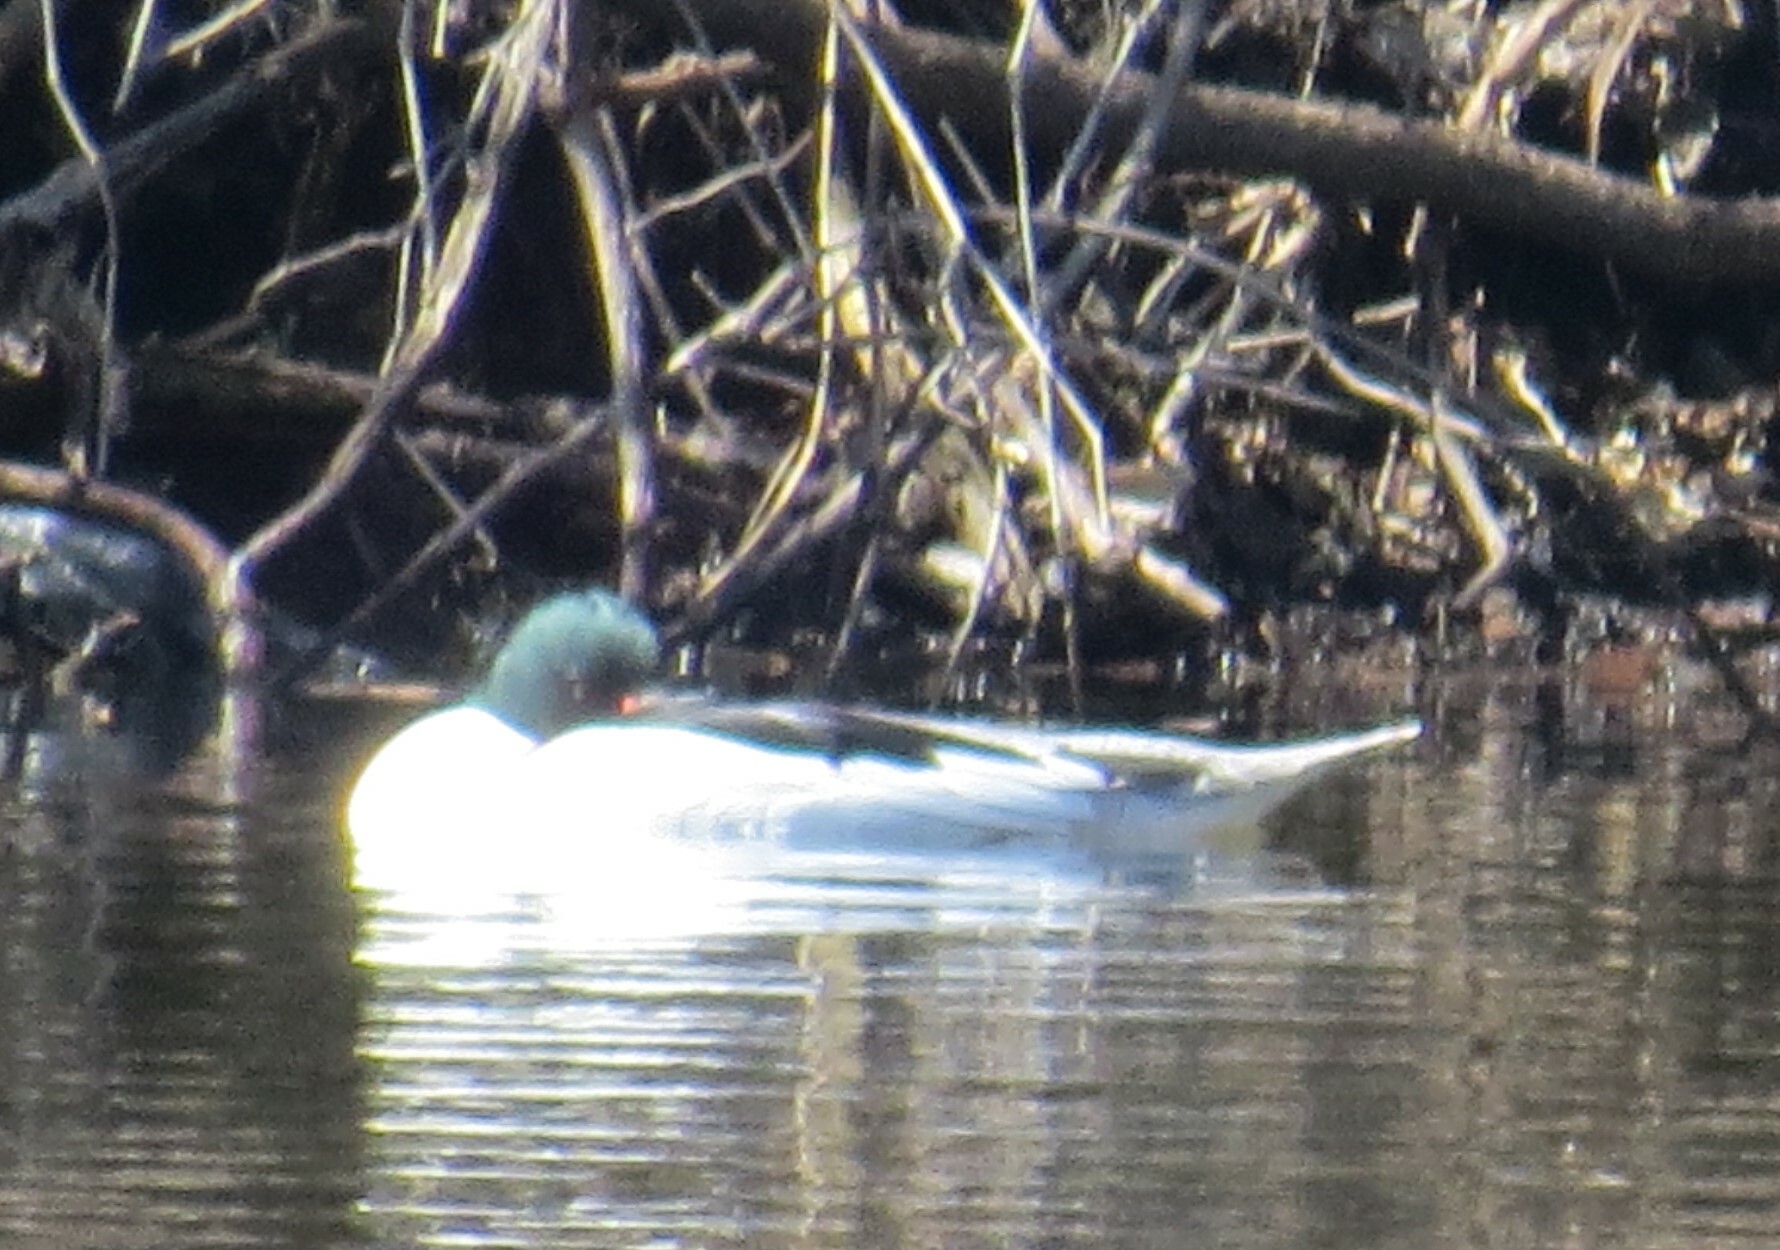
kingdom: Animalia
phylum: Chordata
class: Aves
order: Anseriformes
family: Anatidae
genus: Mergus
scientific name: Mergus merganser
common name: Common merganser
